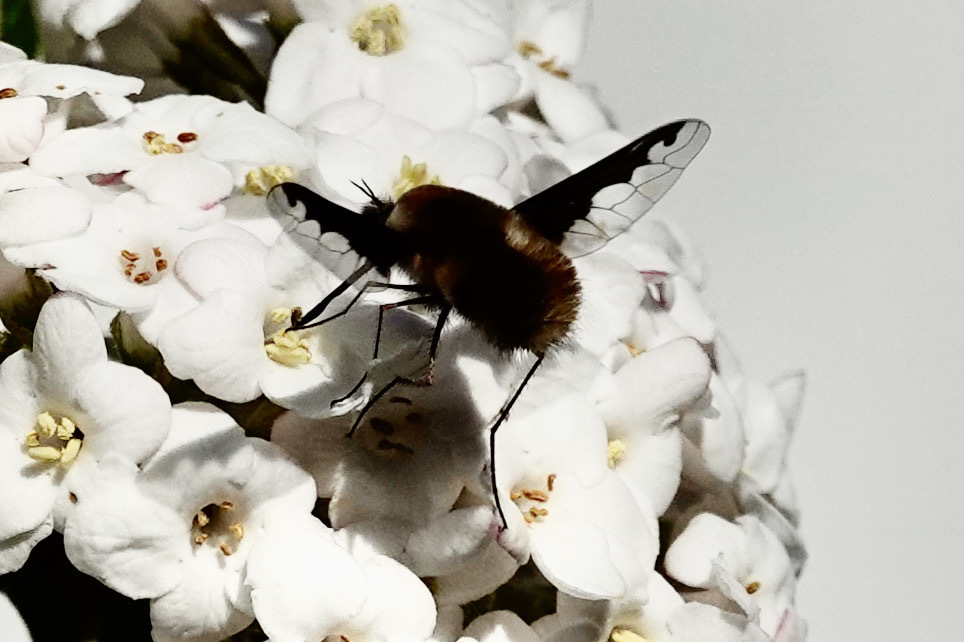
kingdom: Animalia
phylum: Arthropoda
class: Insecta
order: Diptera
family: Bombyliidae
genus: Bombylius
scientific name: Bombylius major
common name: Bee fly
